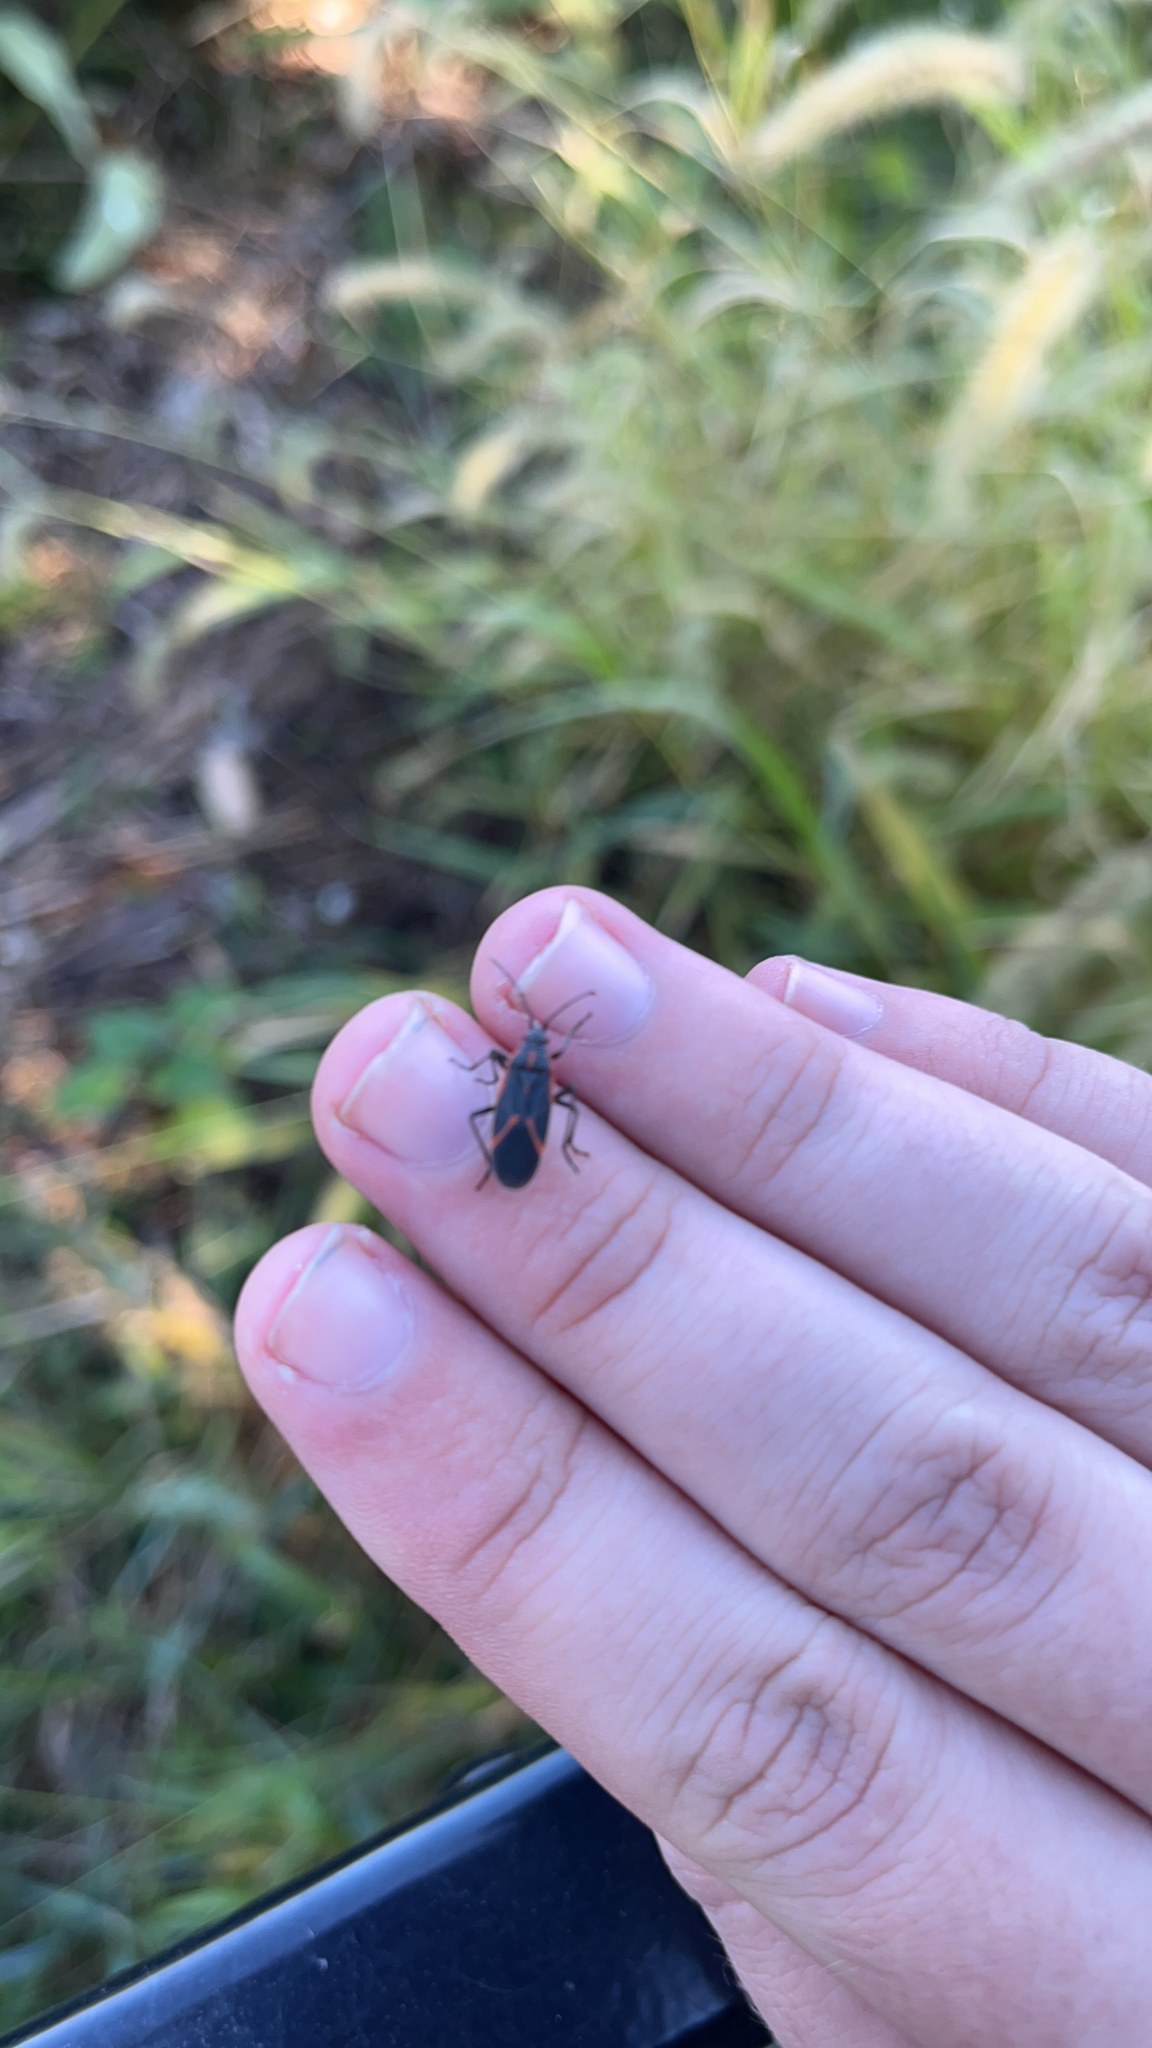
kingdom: Animalia
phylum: Arthropoda
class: Insecta
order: Hemiptera
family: Rhopalidae
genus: Boisea
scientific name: Boisea trivittata
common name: Boxelder bug
